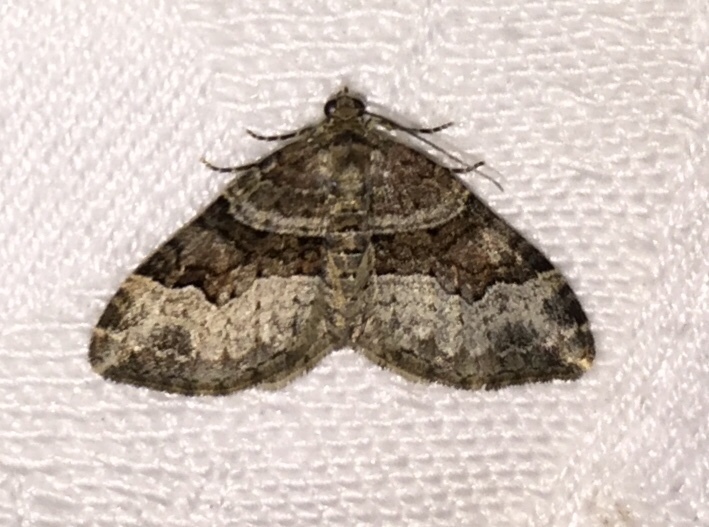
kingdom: Animalia
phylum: Arthropoda
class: Insecta
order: Lepidoptera
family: Geometridae
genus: Xanthorhoe
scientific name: Xanthorhoe lacustrata
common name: Toothed brown carpet
